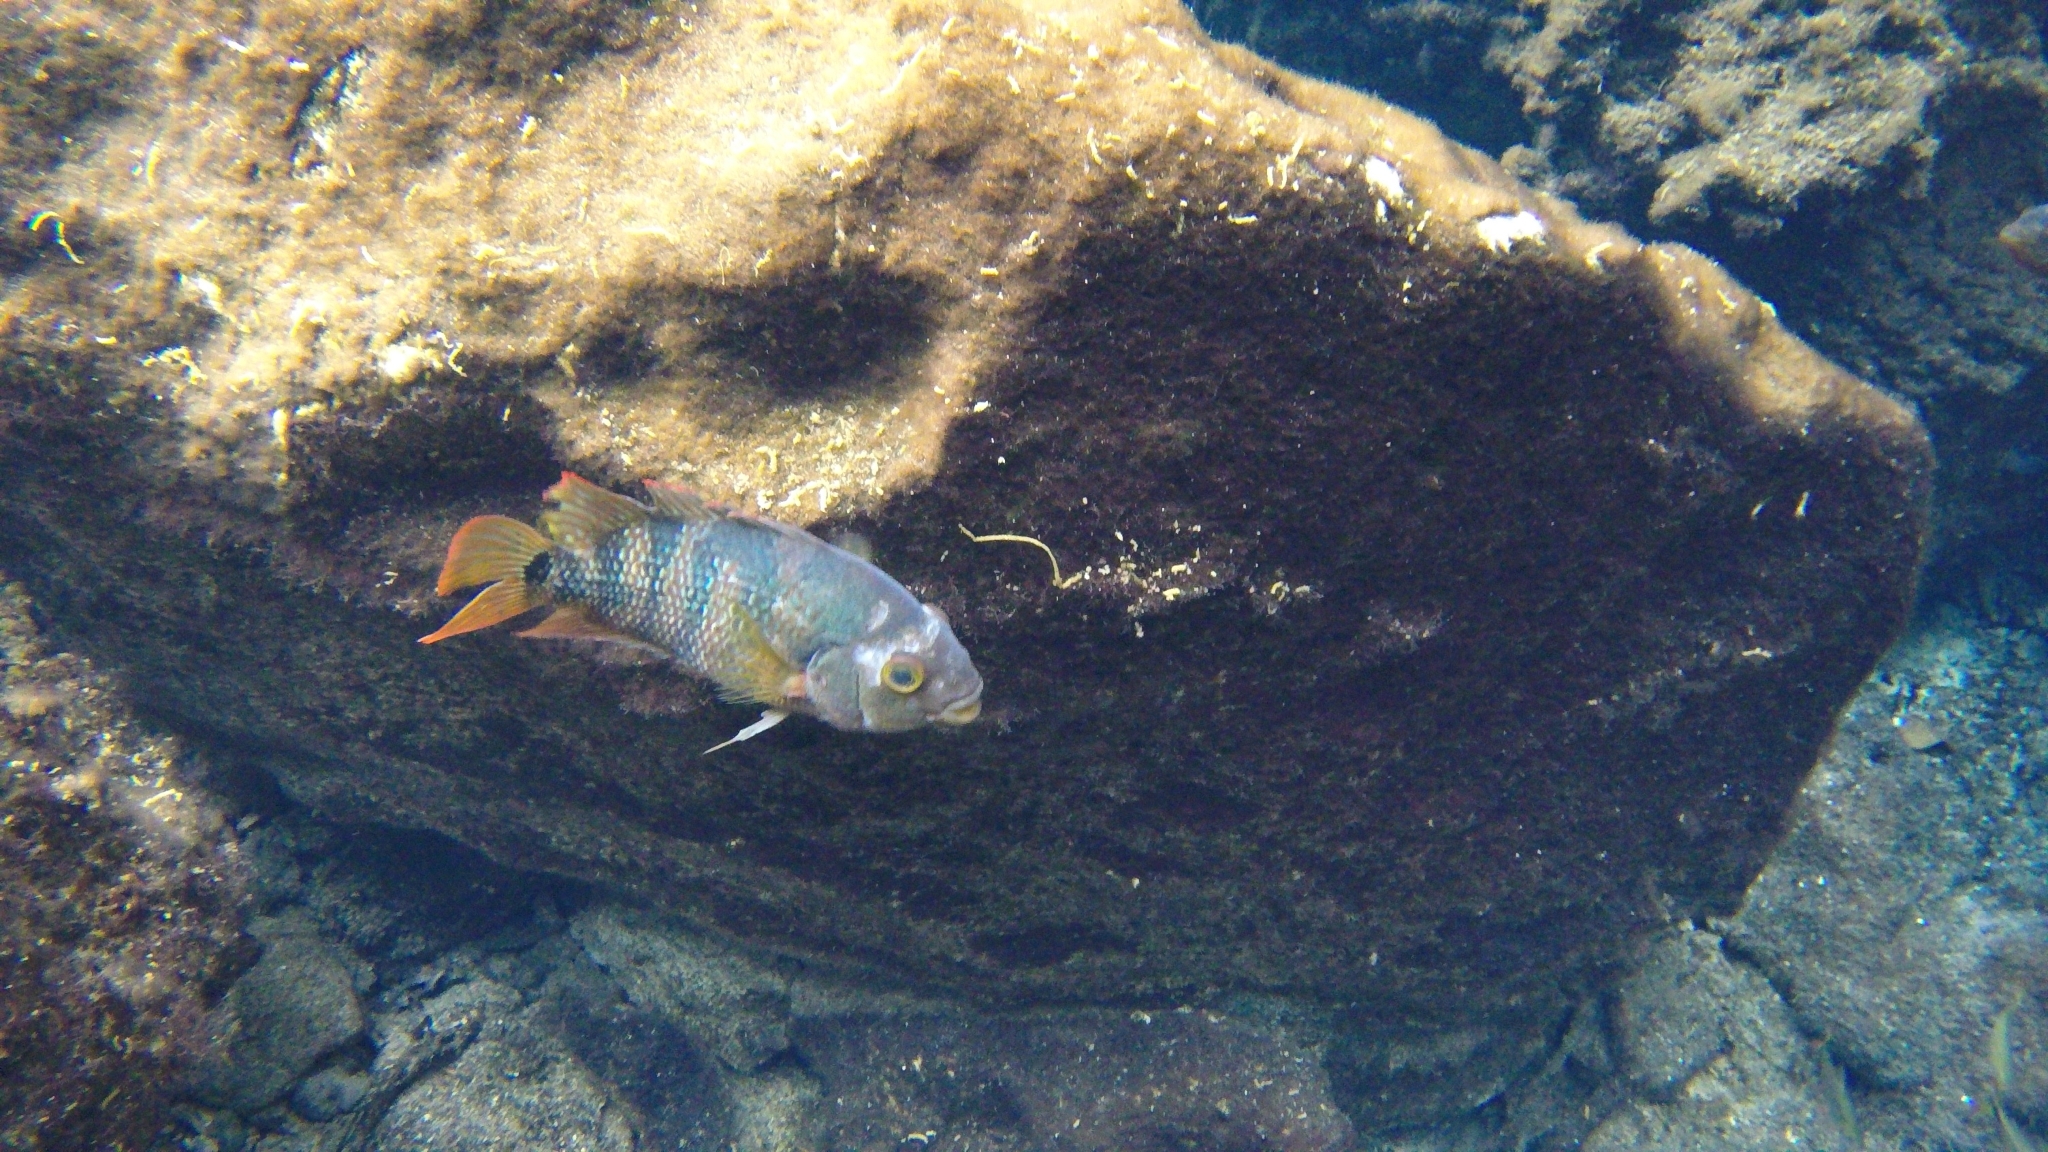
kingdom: Animalia
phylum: Chordata
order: Perciformes
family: Cichlidae
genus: Mayaheros
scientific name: Mayaheros urophthalmus
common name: Mayan cichlid
